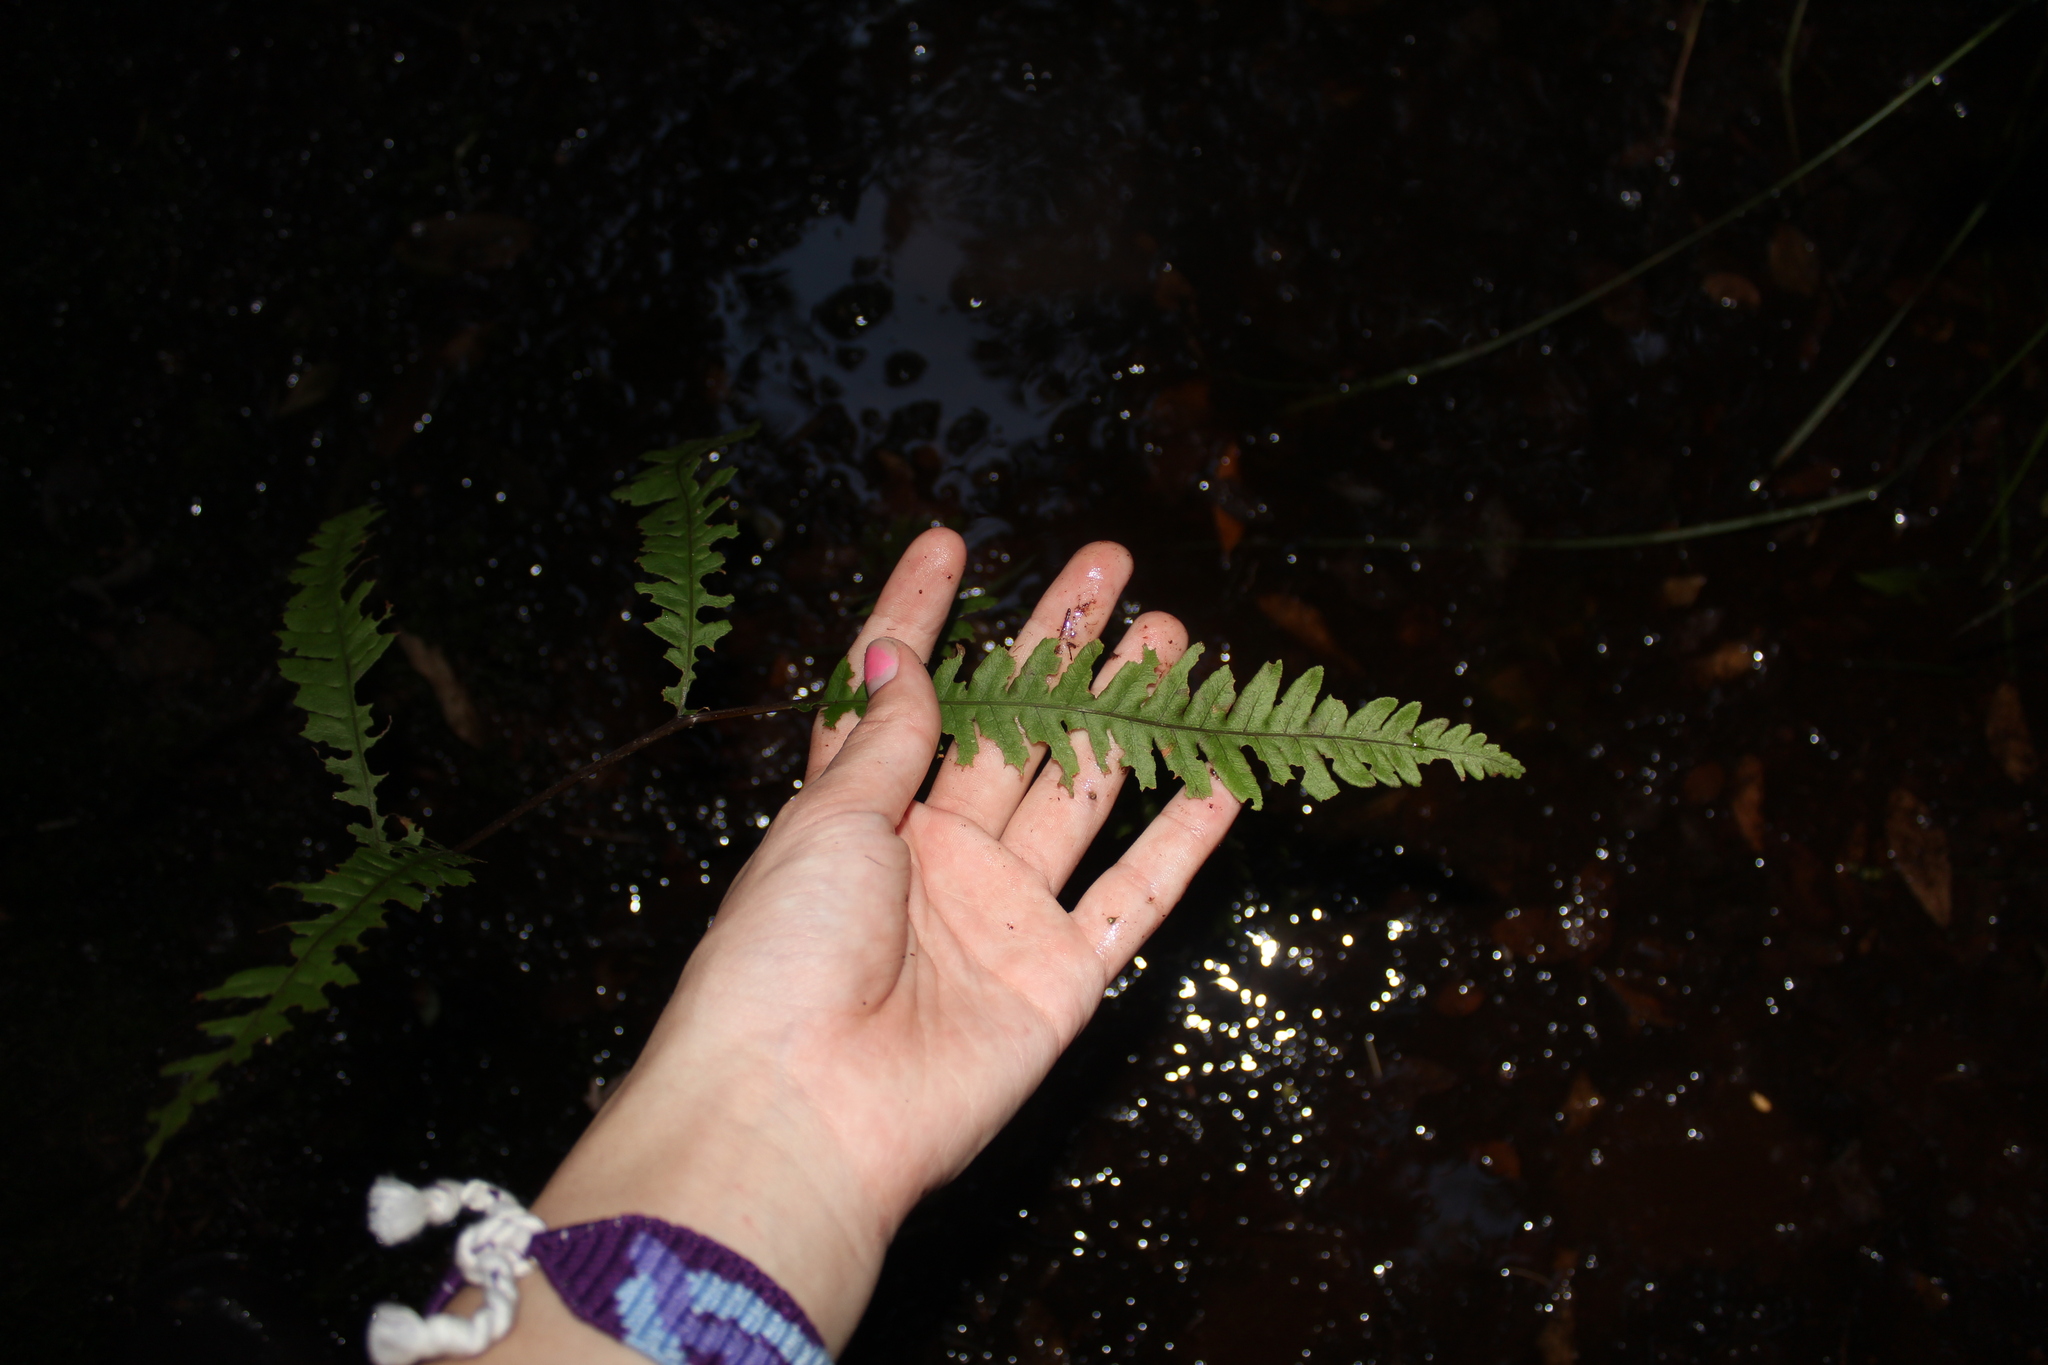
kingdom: Plantae
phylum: Tracheophyta
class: Polypodiopsida
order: Polypodiales
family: Blechnaceae
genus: Anchistea
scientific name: Anchistea virginica
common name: Virginia chain fern
